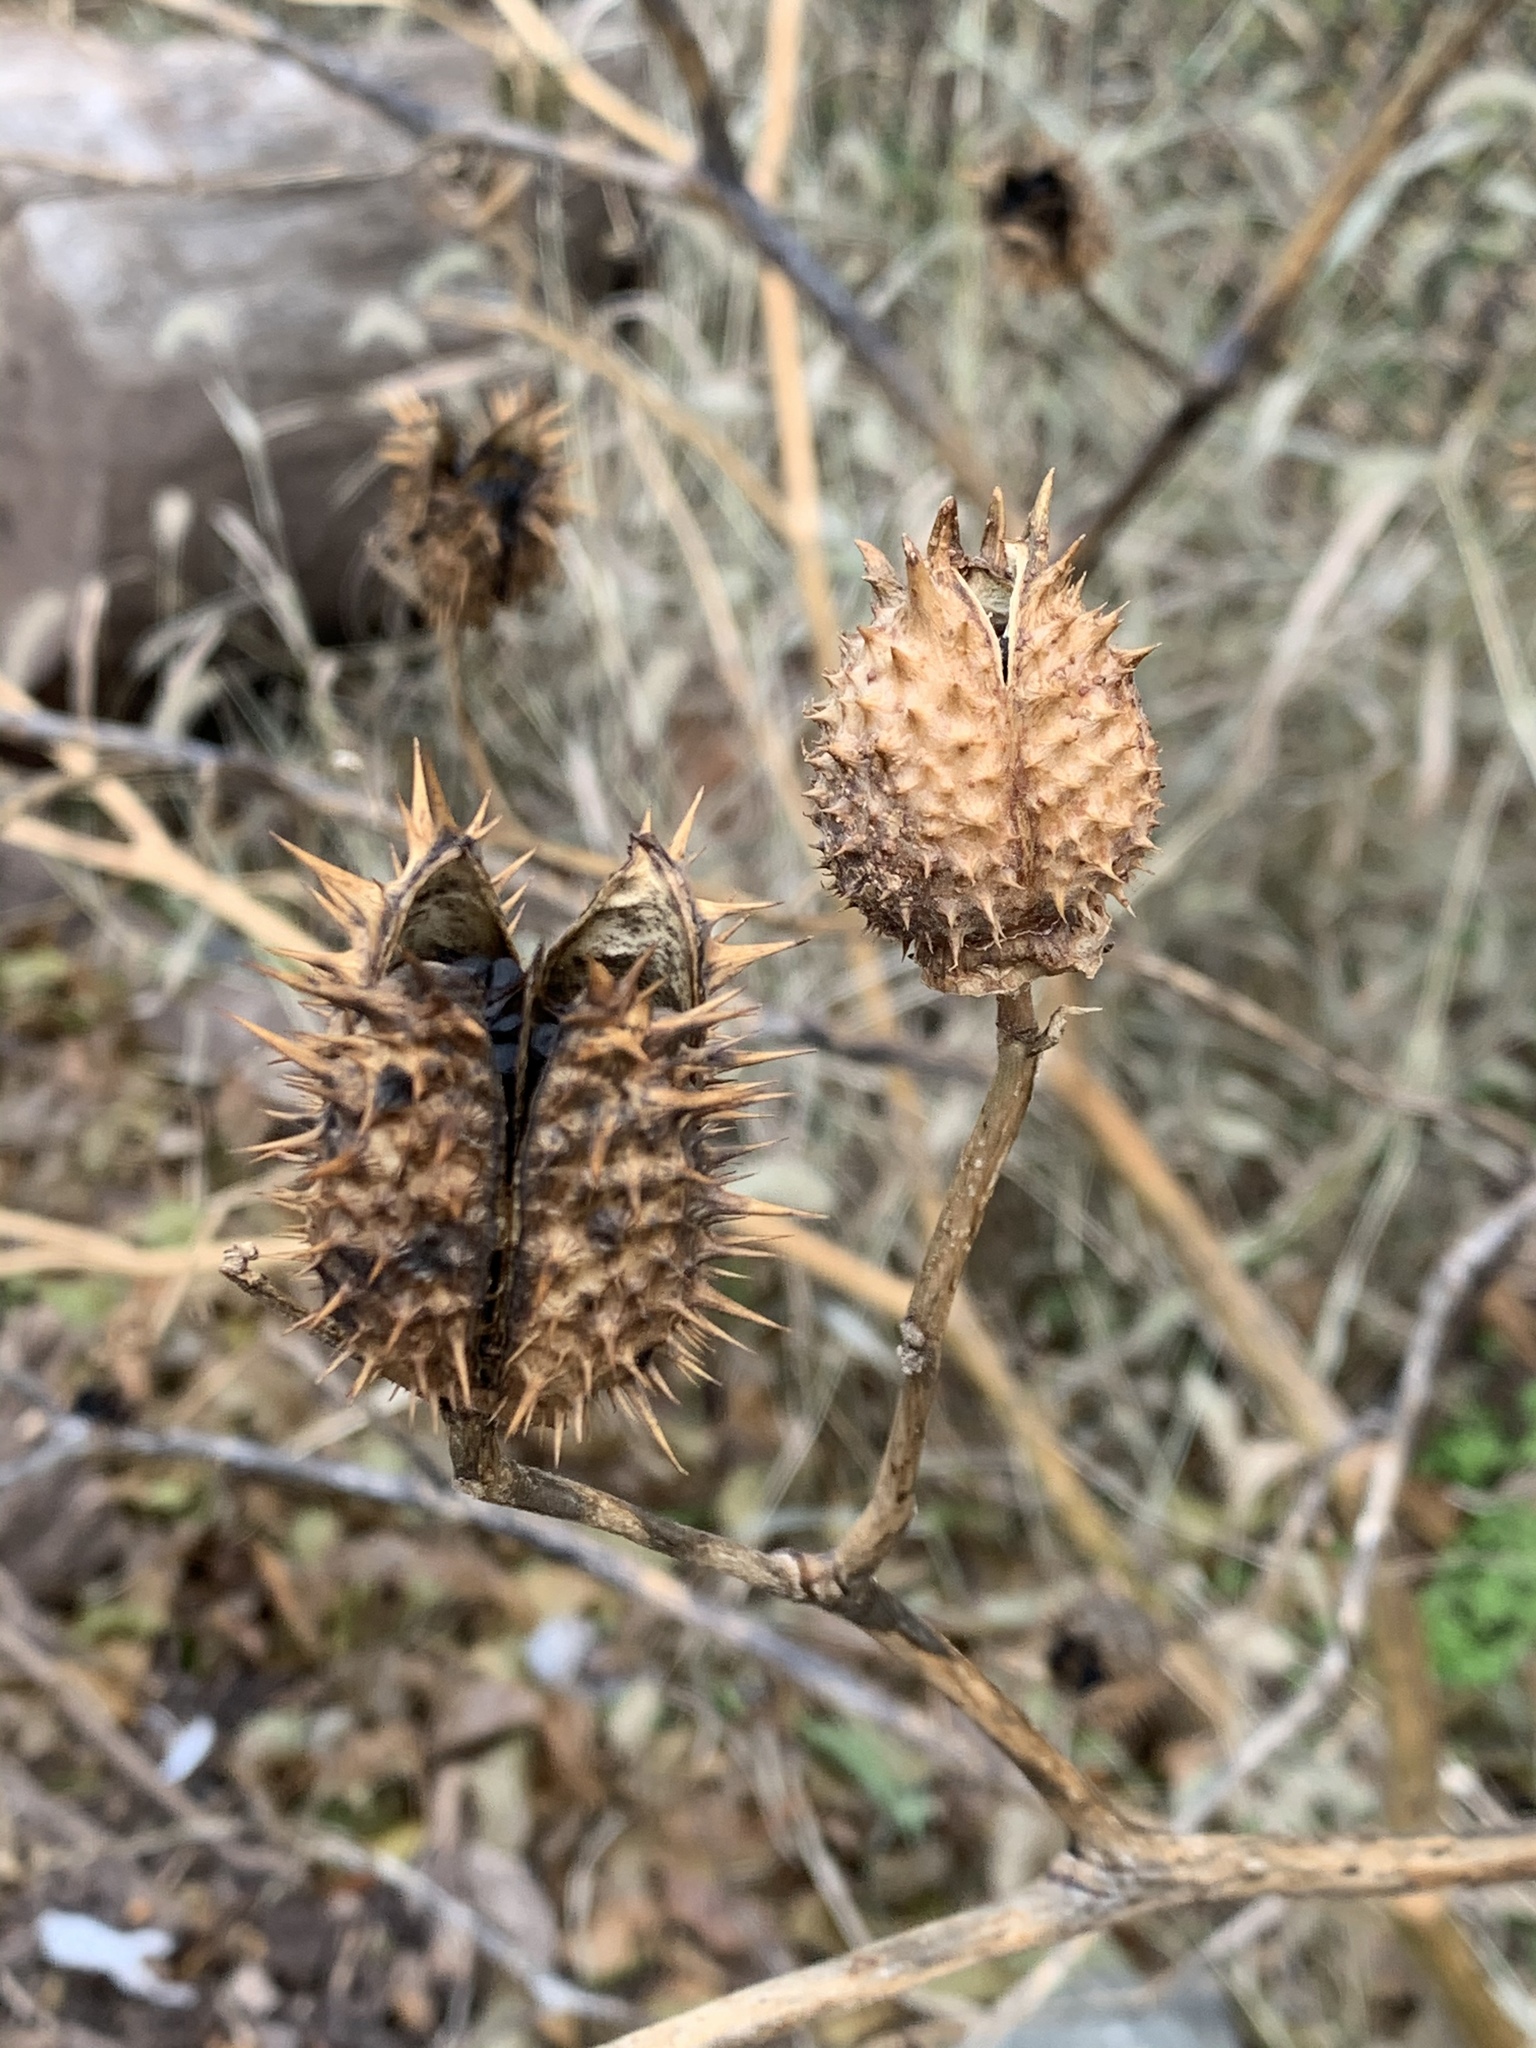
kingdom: Plantae
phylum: Tracheophyta
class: Magnoliopsida
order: Solanales
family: Solanaceae
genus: Datura
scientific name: Datura stramonium
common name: Thorn-apple
